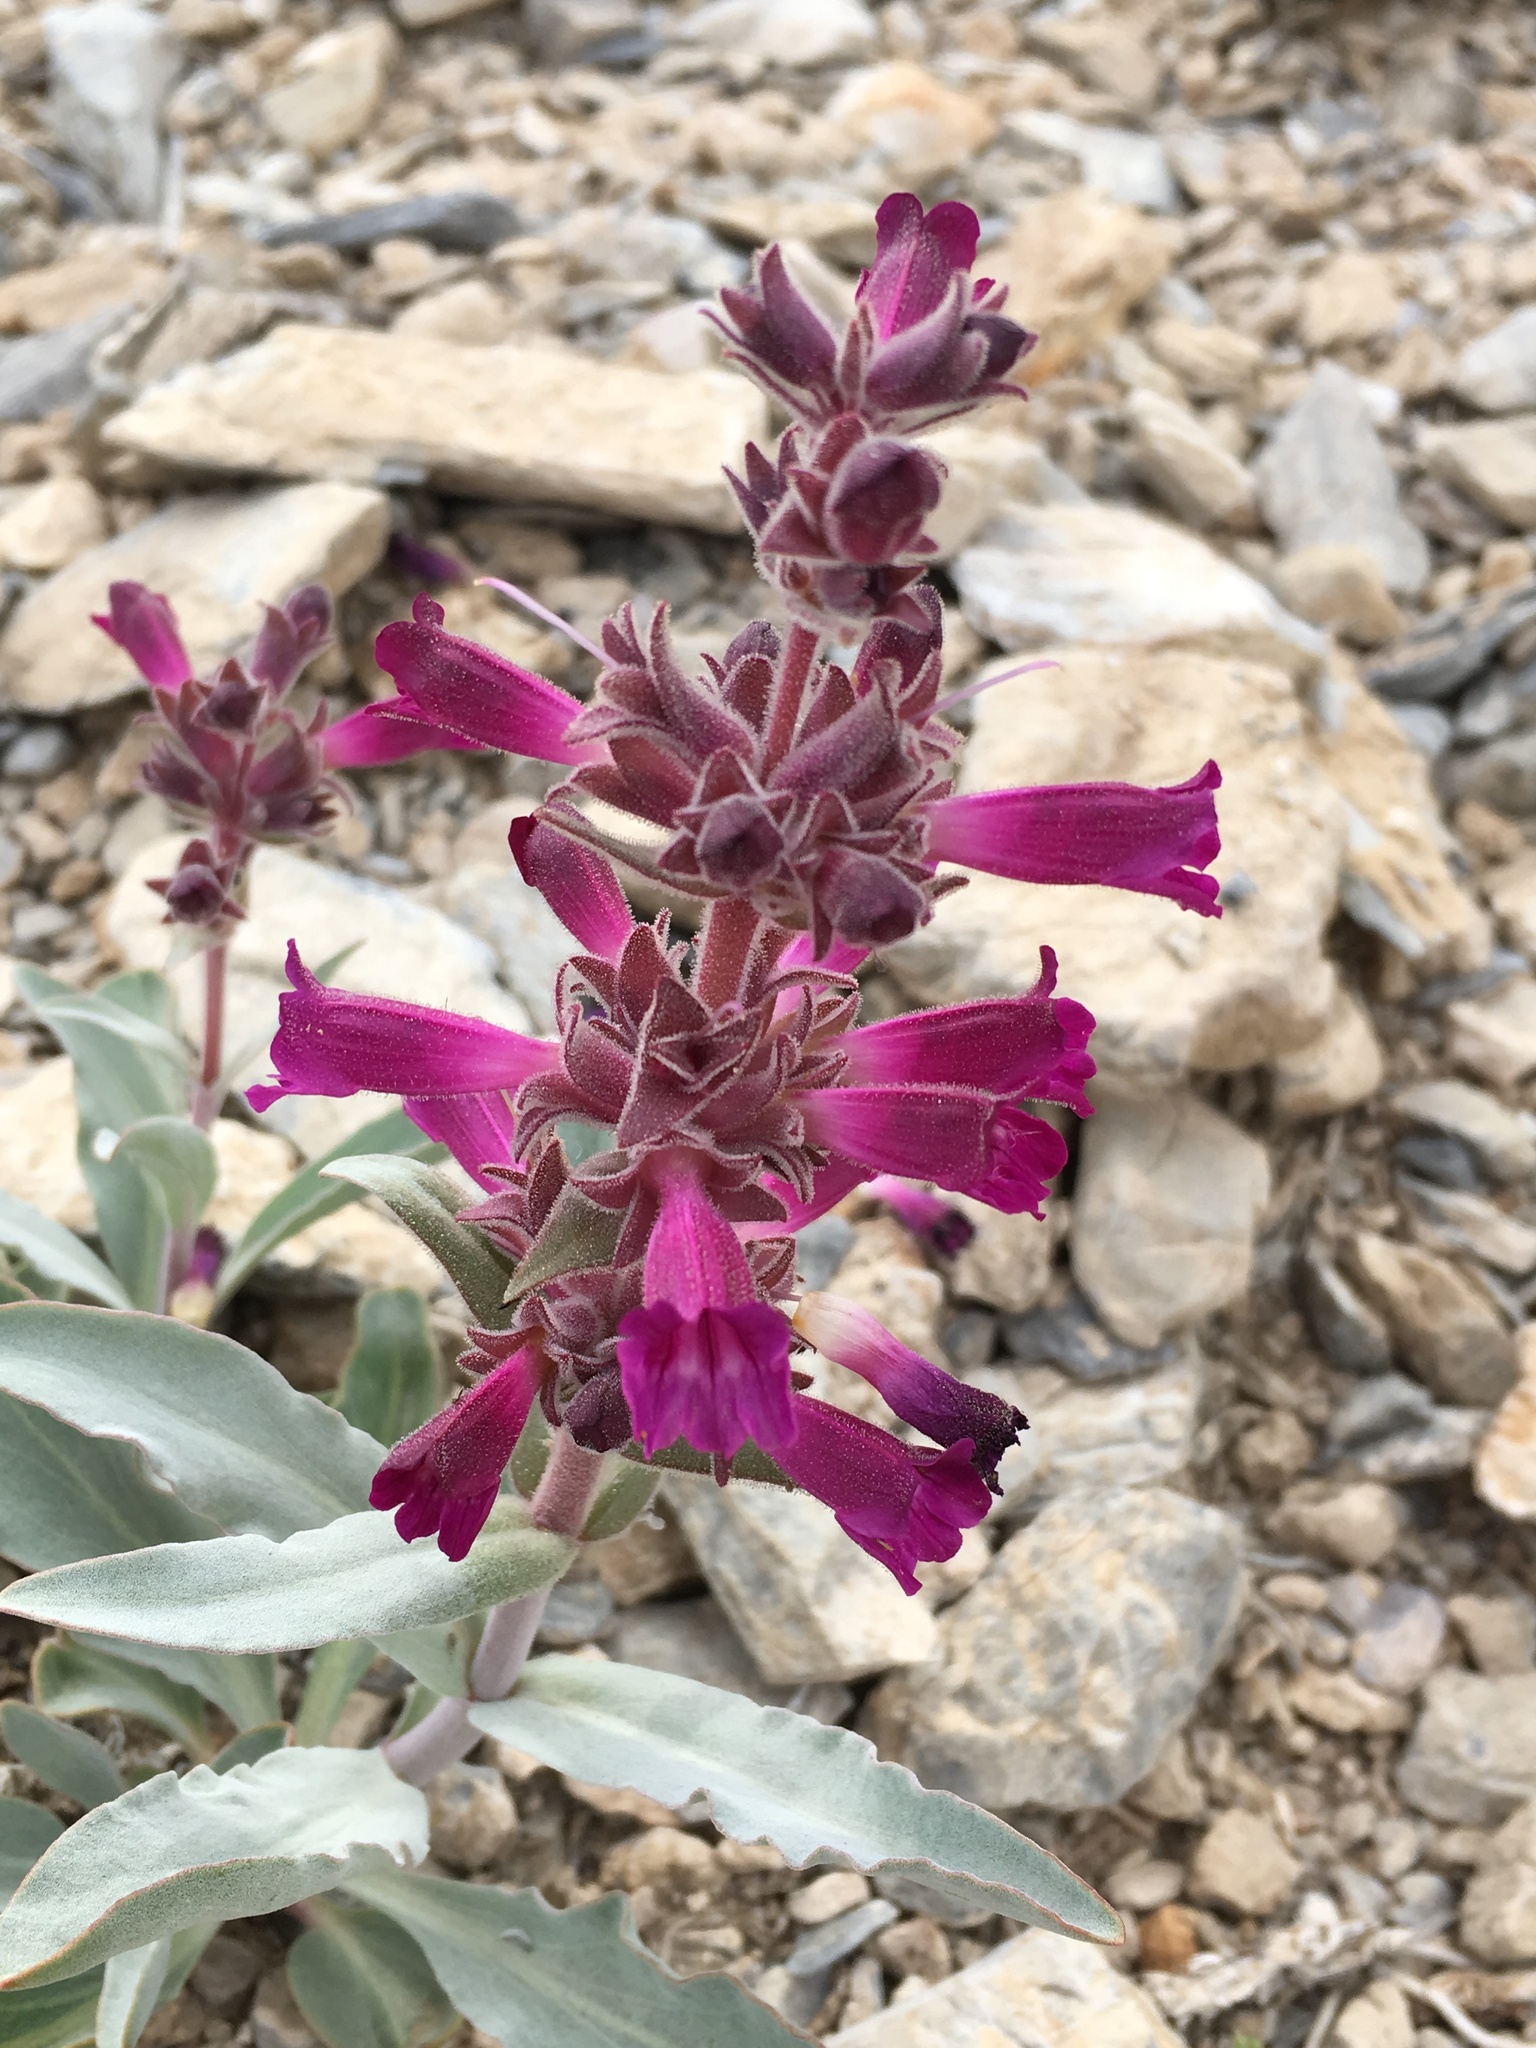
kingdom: Plantae
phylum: Tracheophyta
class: Magnoliopsida
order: Lamiales
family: Plantaginaceae
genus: Penstemon
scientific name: Penstemon monoensis
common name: Mono penstemon
